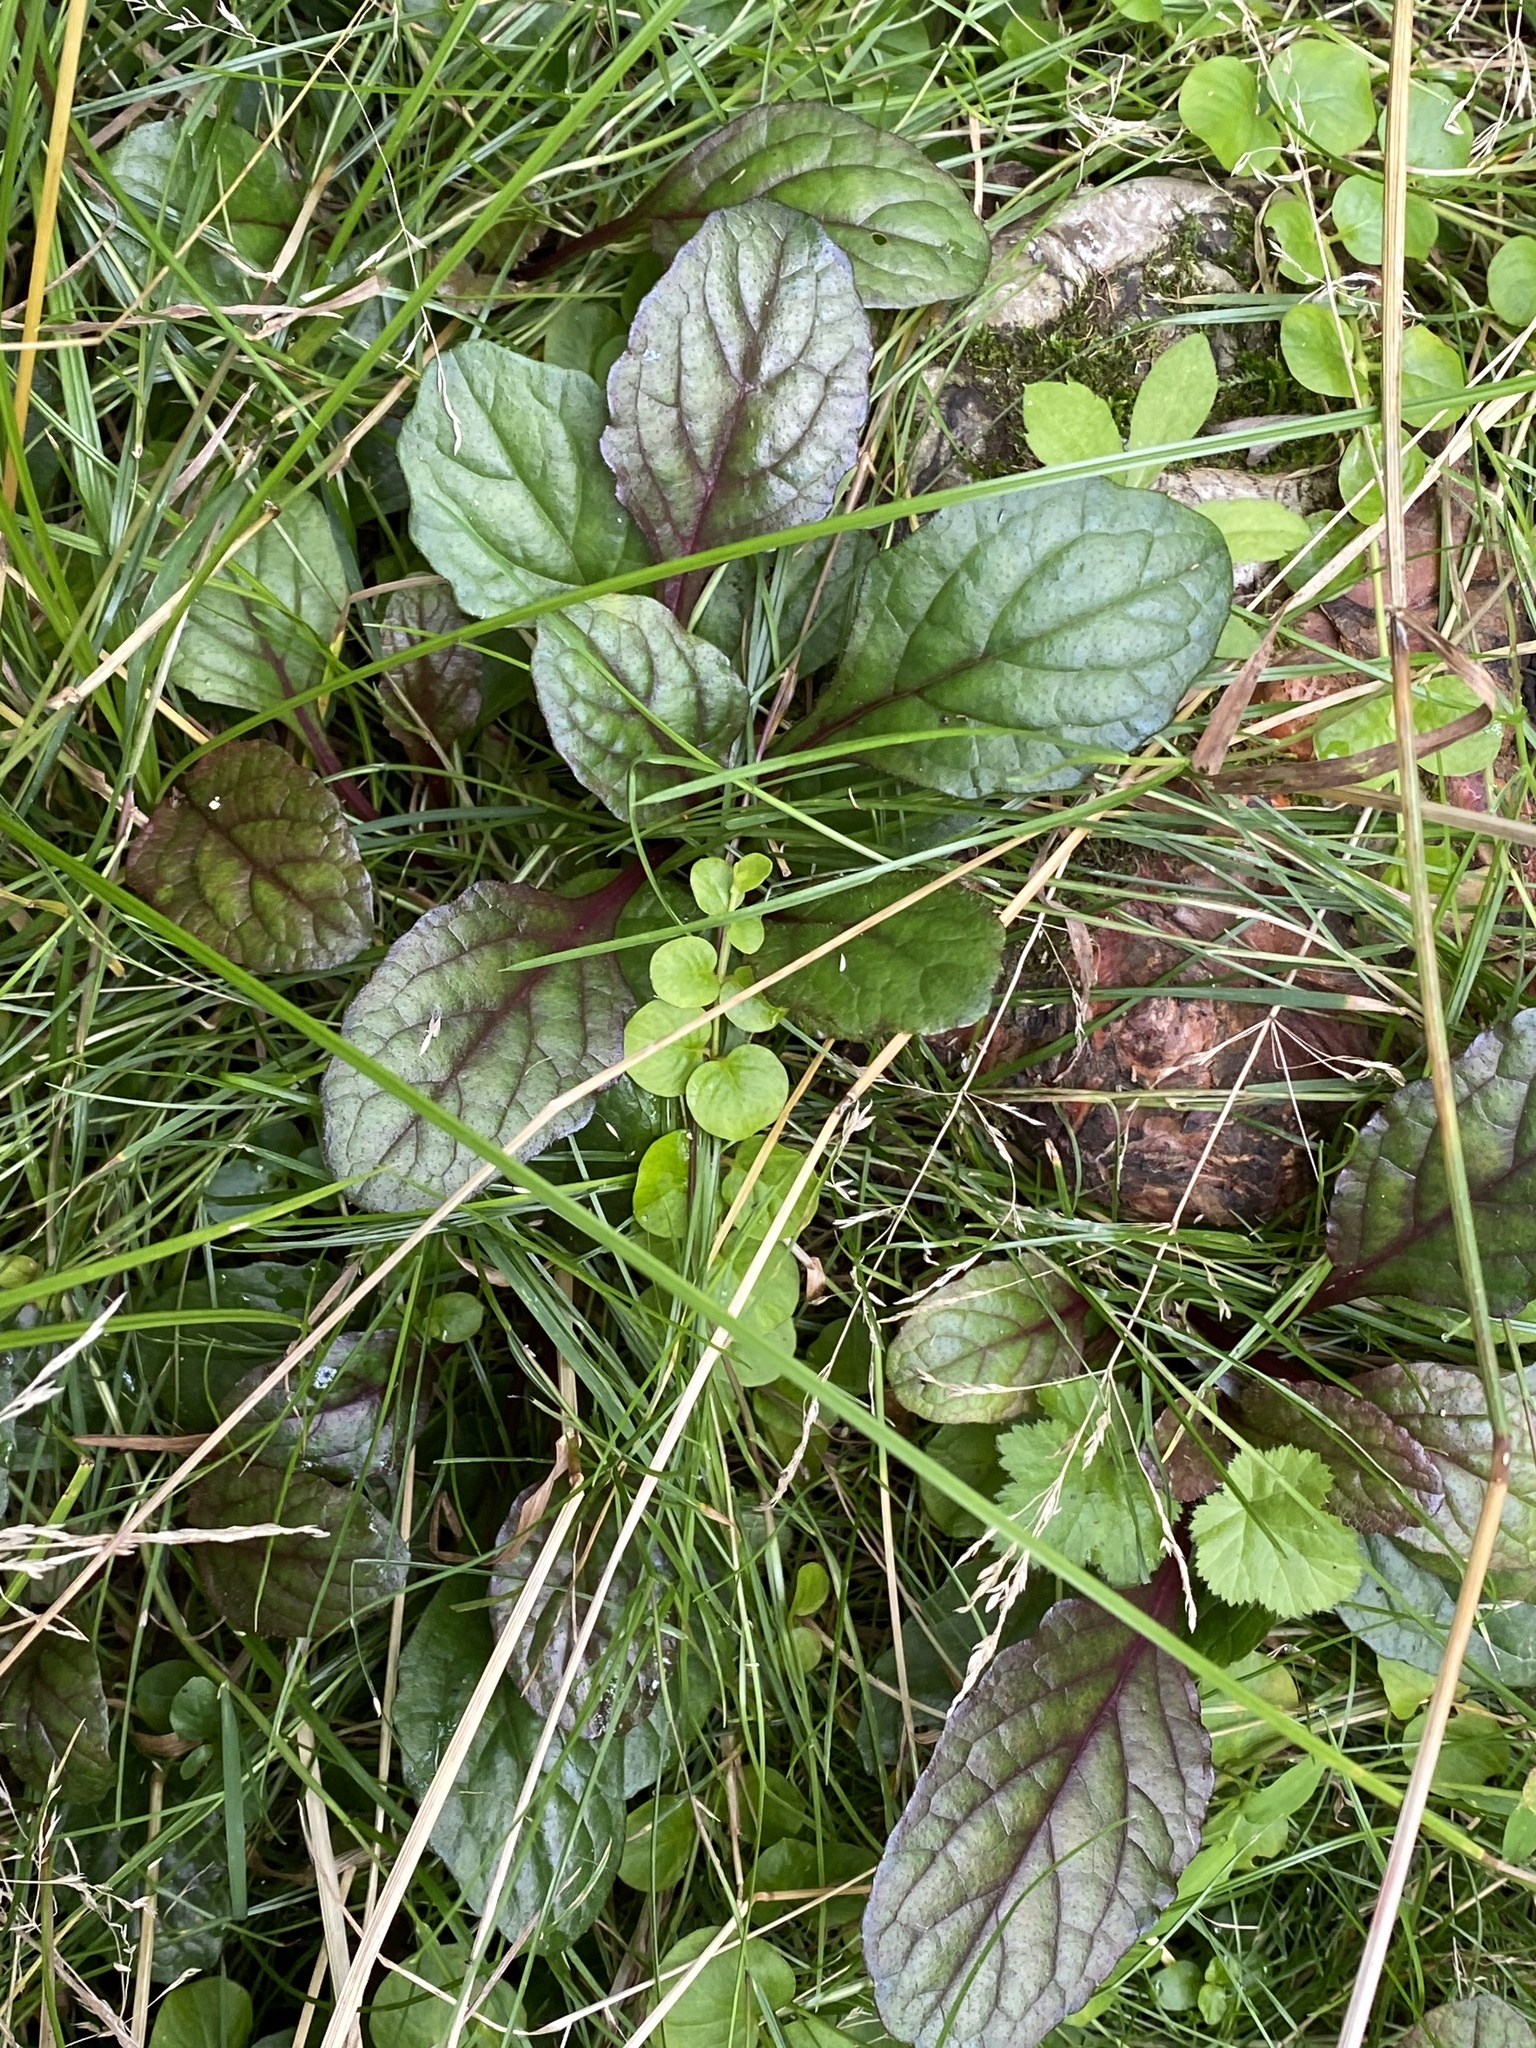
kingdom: Plantae
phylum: Tracheophyta
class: Magnoliopsida
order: Lamiales
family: Lamiaceae
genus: Ajuga
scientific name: Ajuga reptans
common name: Bugle
